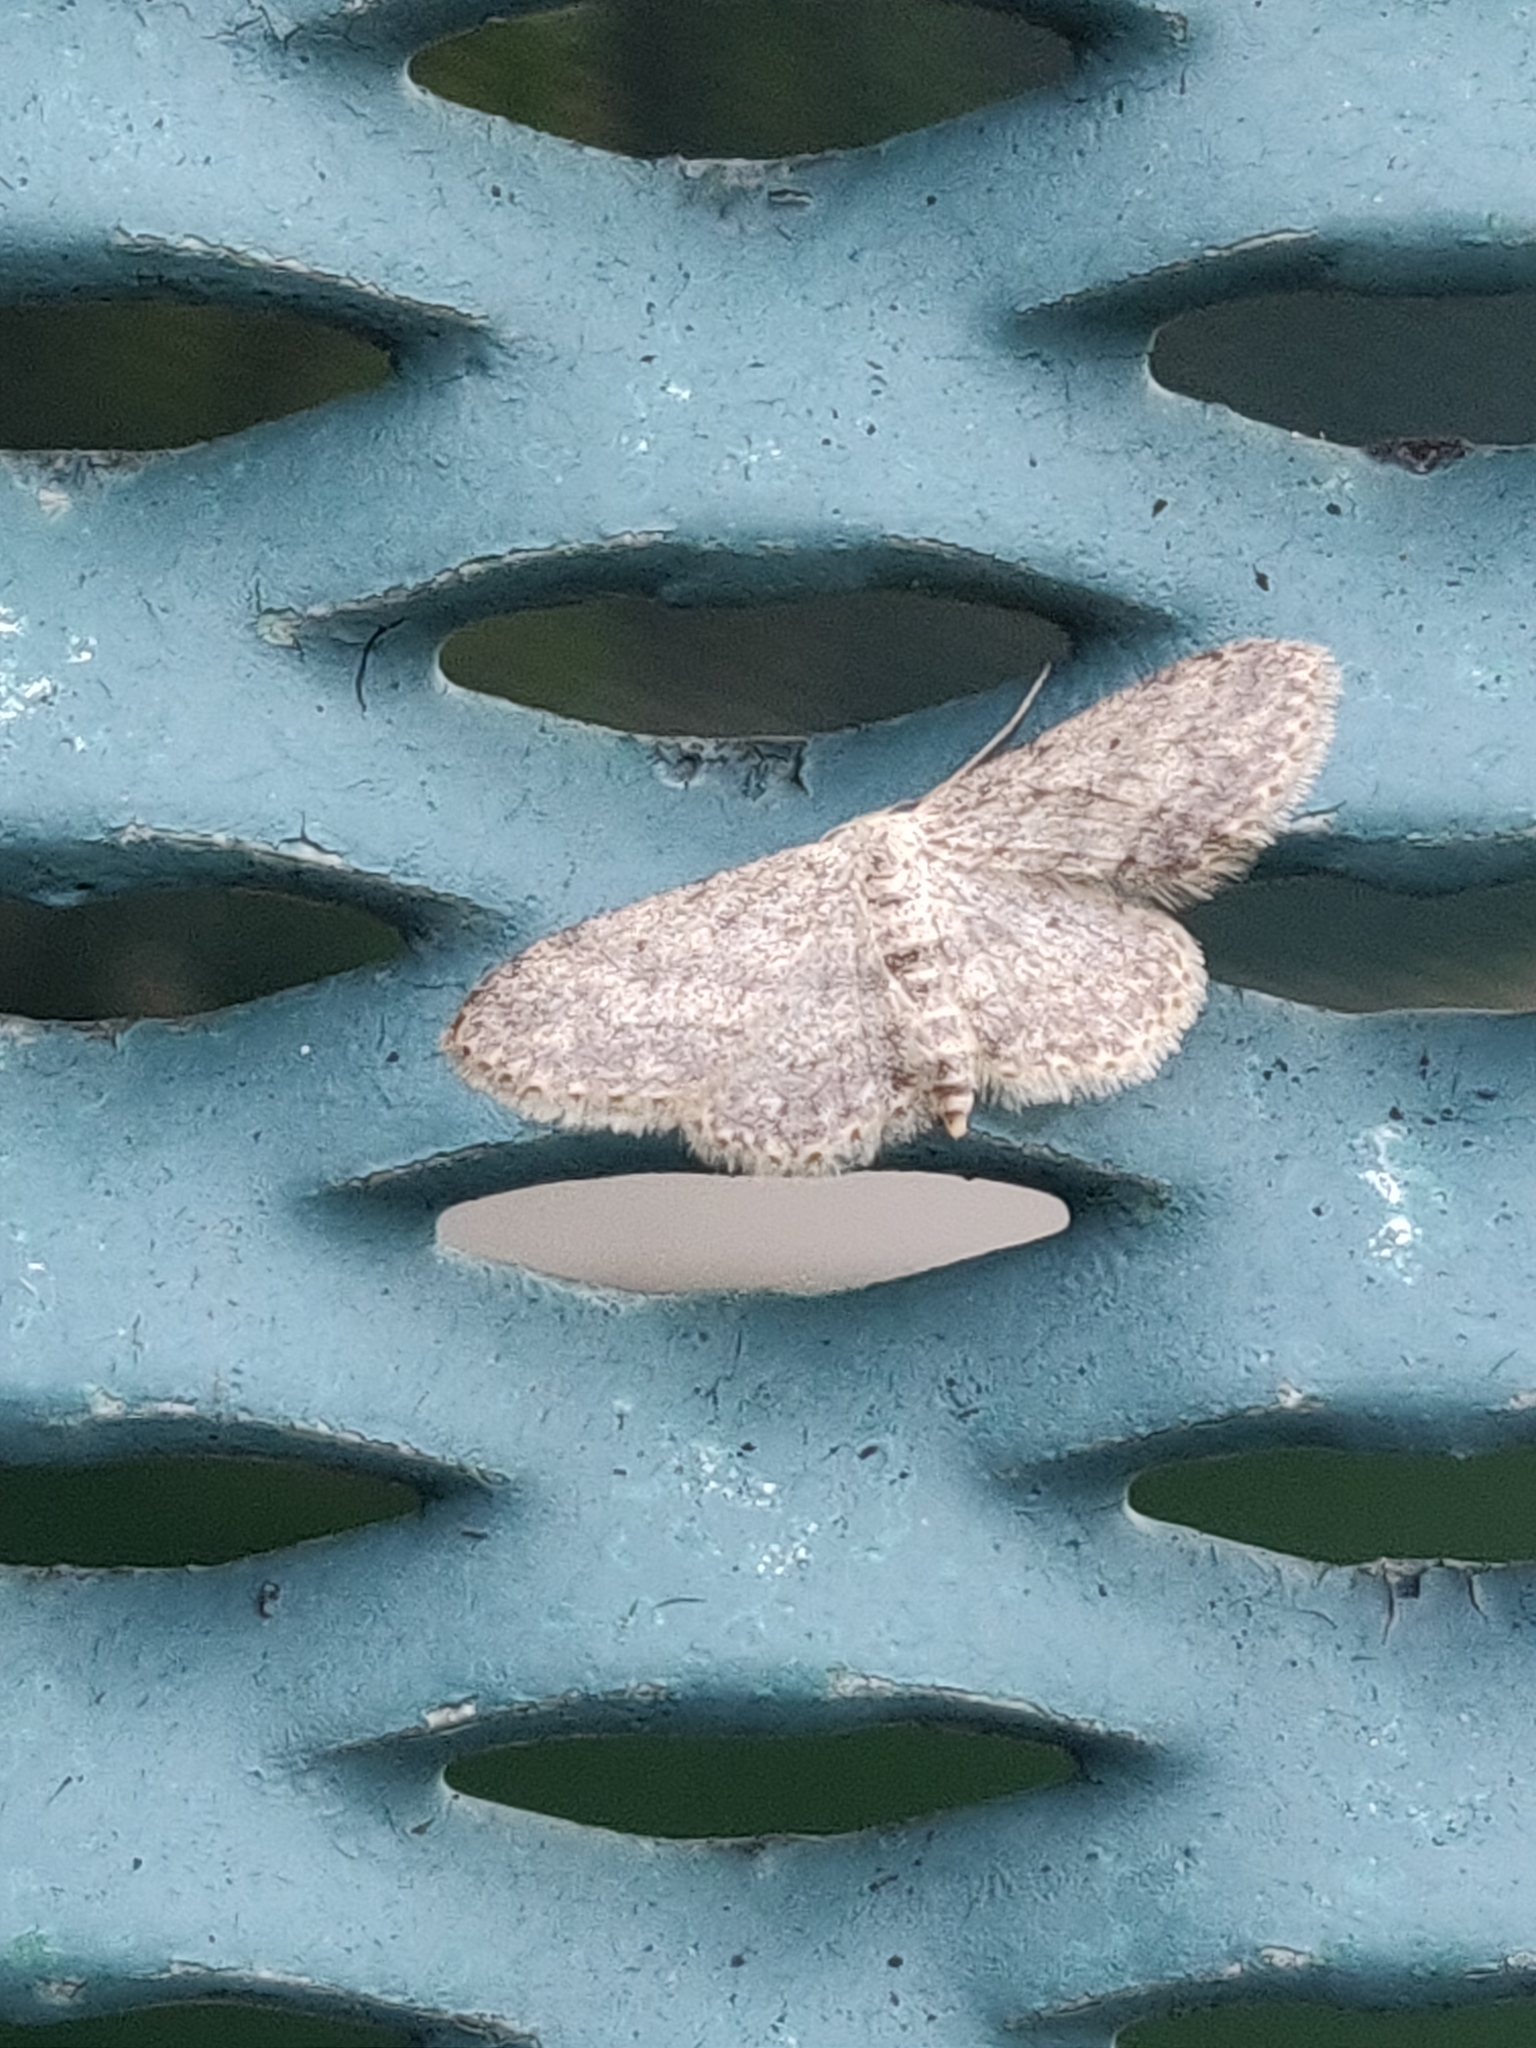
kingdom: Animalia
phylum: Arthropoda
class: Insecta
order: Lepidoptera
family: Geometridae
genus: Idaea
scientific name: Idaea seriata
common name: Small dusty wave
